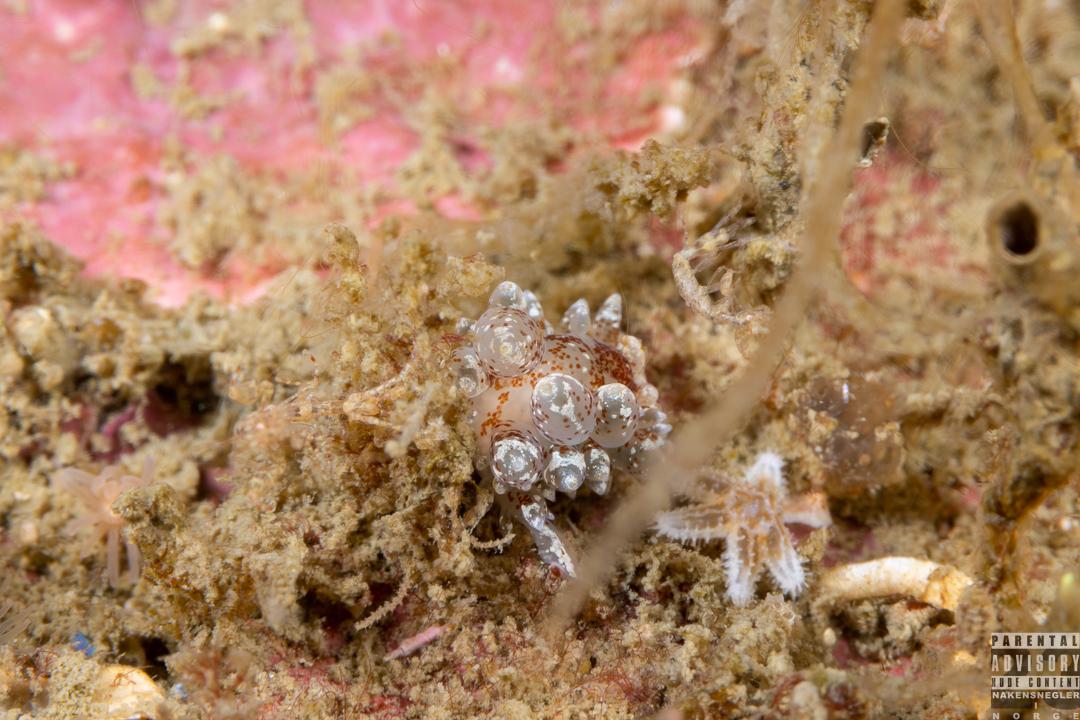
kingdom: Animalia
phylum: Mollusca
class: Gastropoda
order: Nudibranchia
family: Eubranchidae
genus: Amphorina
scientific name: Amphorina pallida
